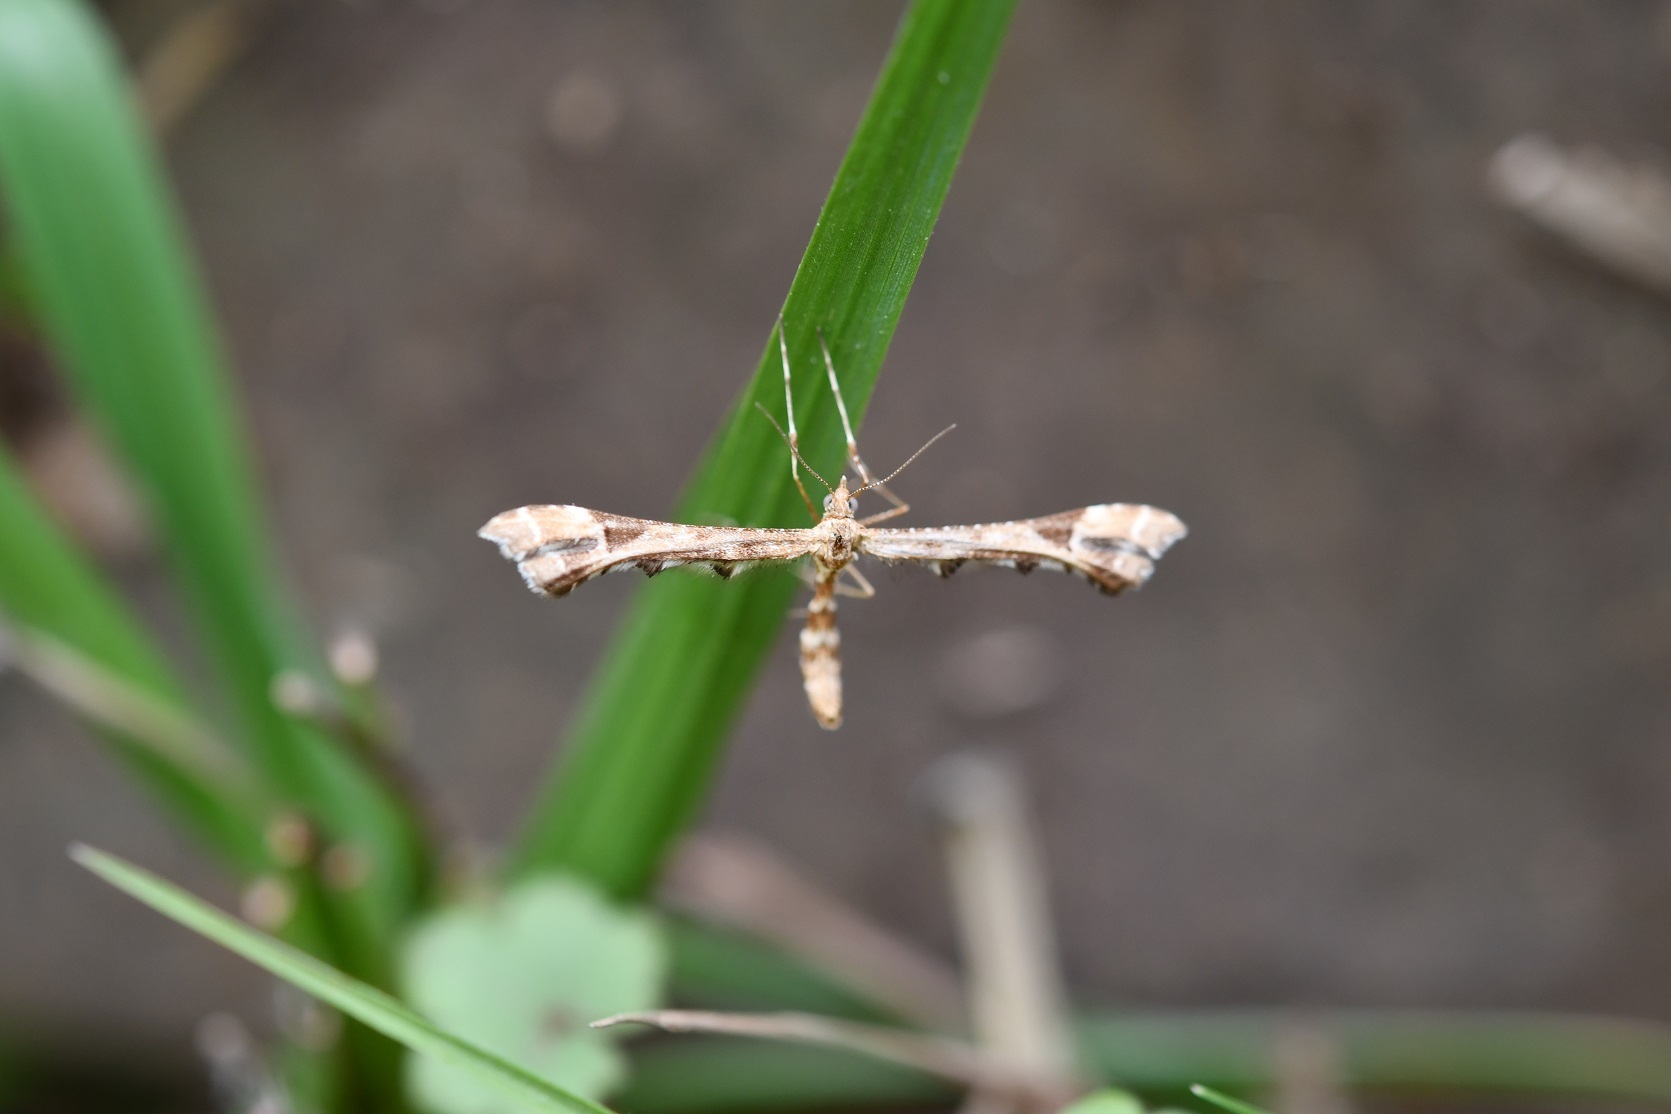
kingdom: Animalia
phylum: Arthropoda
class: Insecta
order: Lepidoptera
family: Pterophoridae
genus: Platyptilia
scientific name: Platyptilia carduidactylus
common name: Artichoke plume moth
